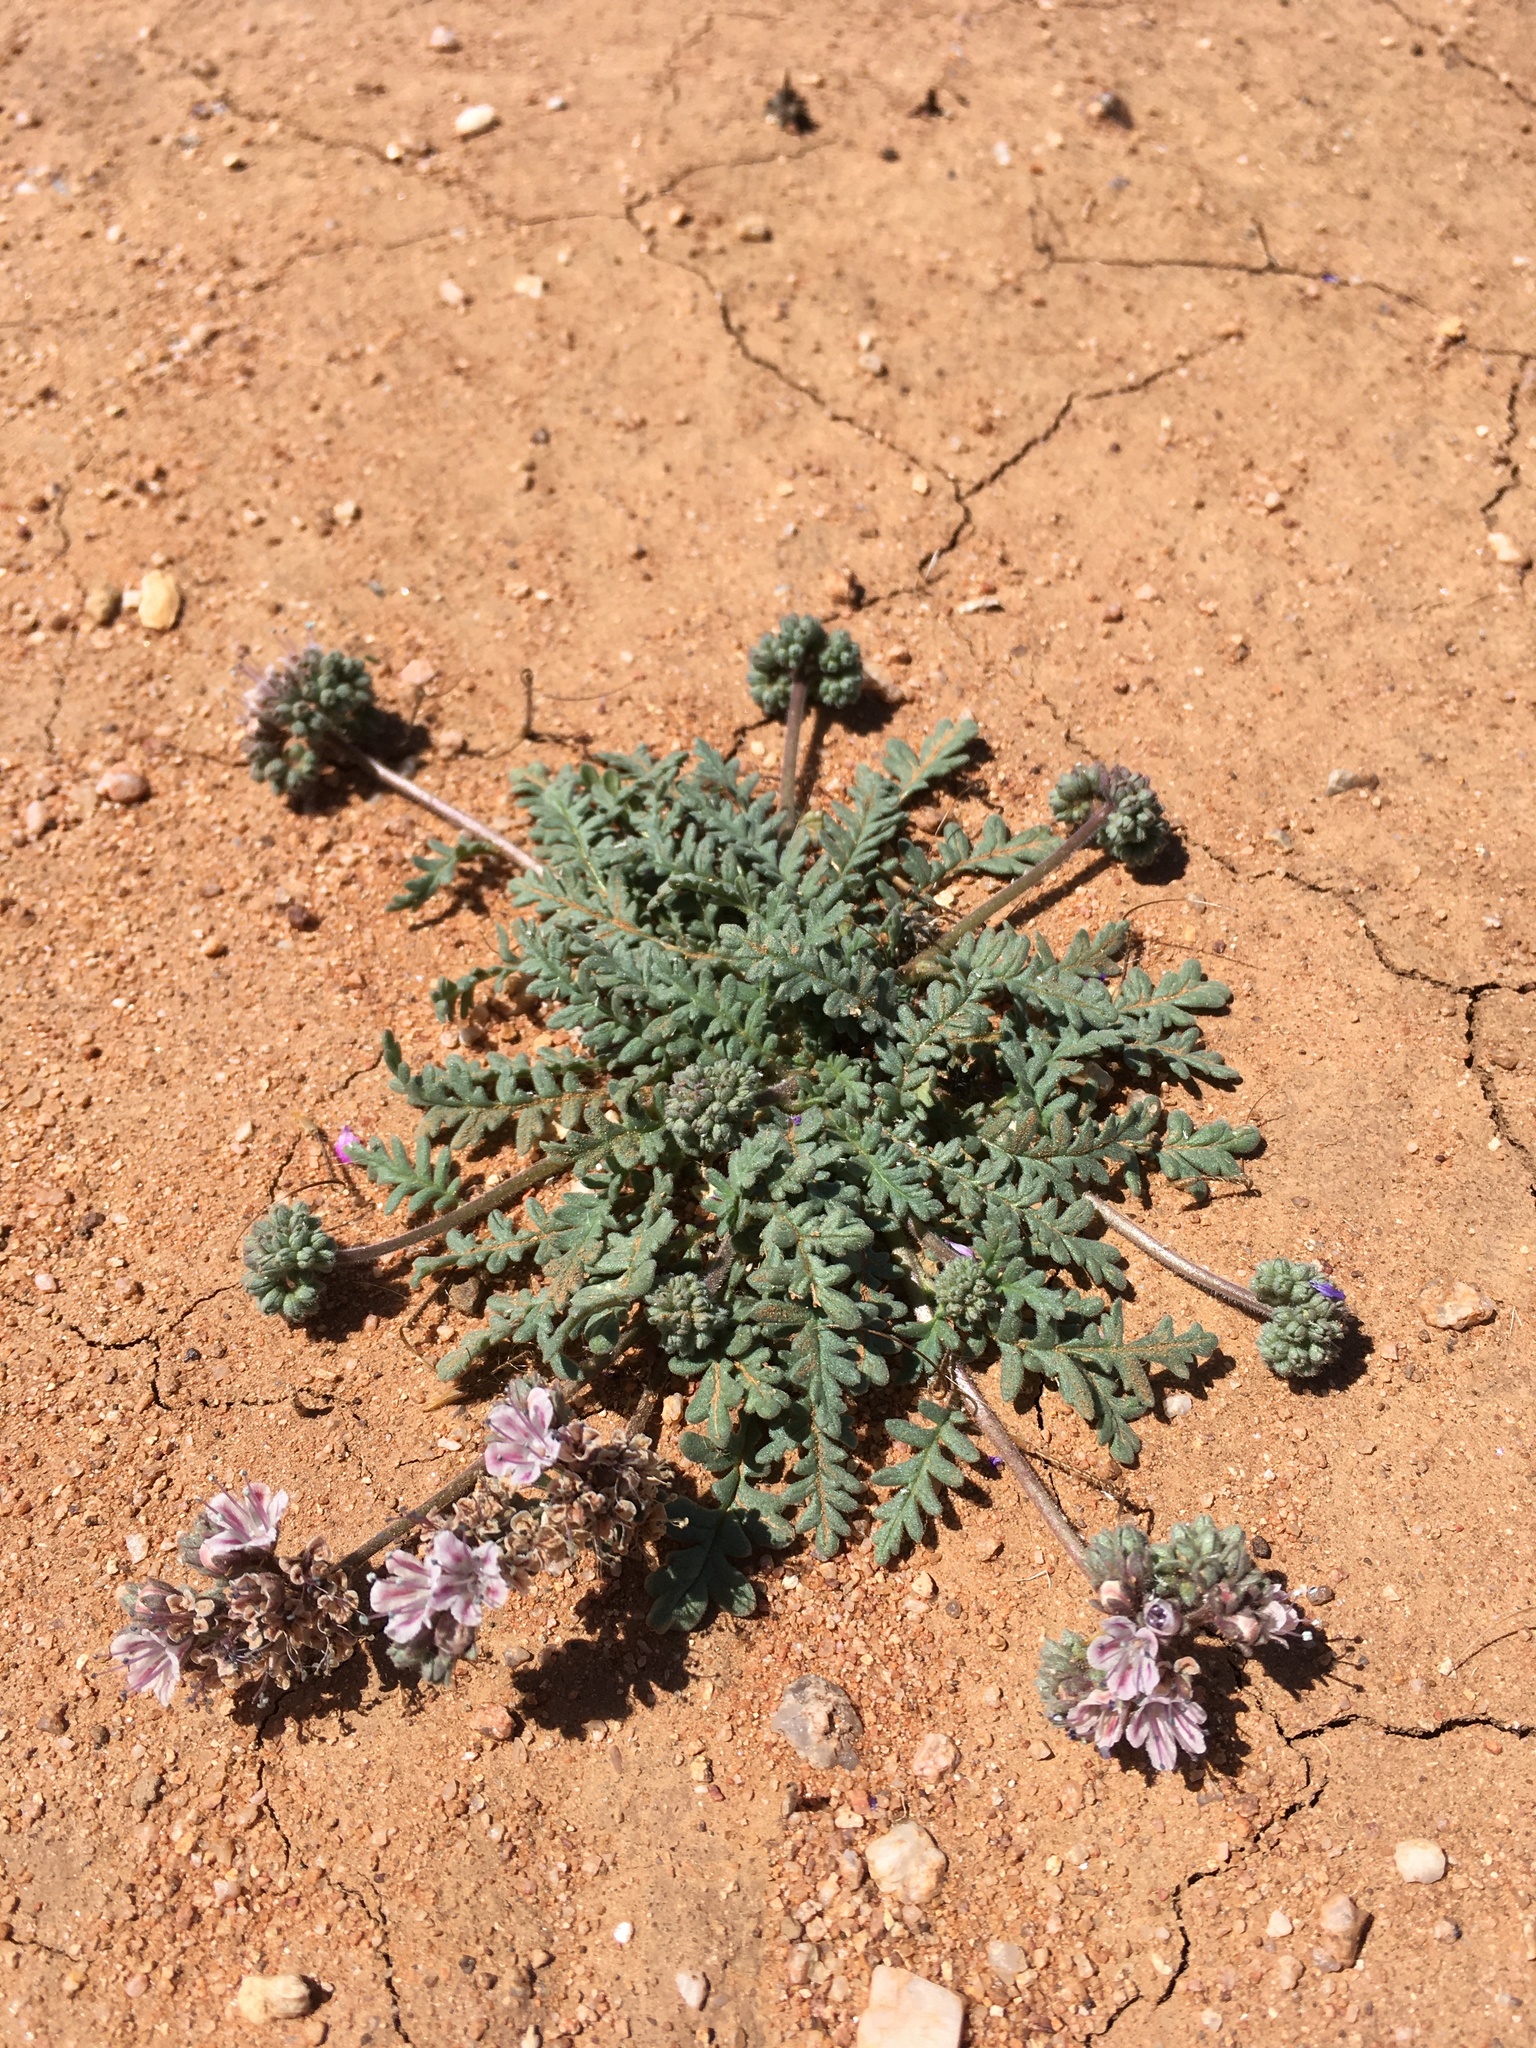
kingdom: Plantae
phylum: Tracheophyta
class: Magnoliopsida
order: Boraginales
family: Hydrophyllaceae
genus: Phacelia
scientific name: Phacelia arizonica
